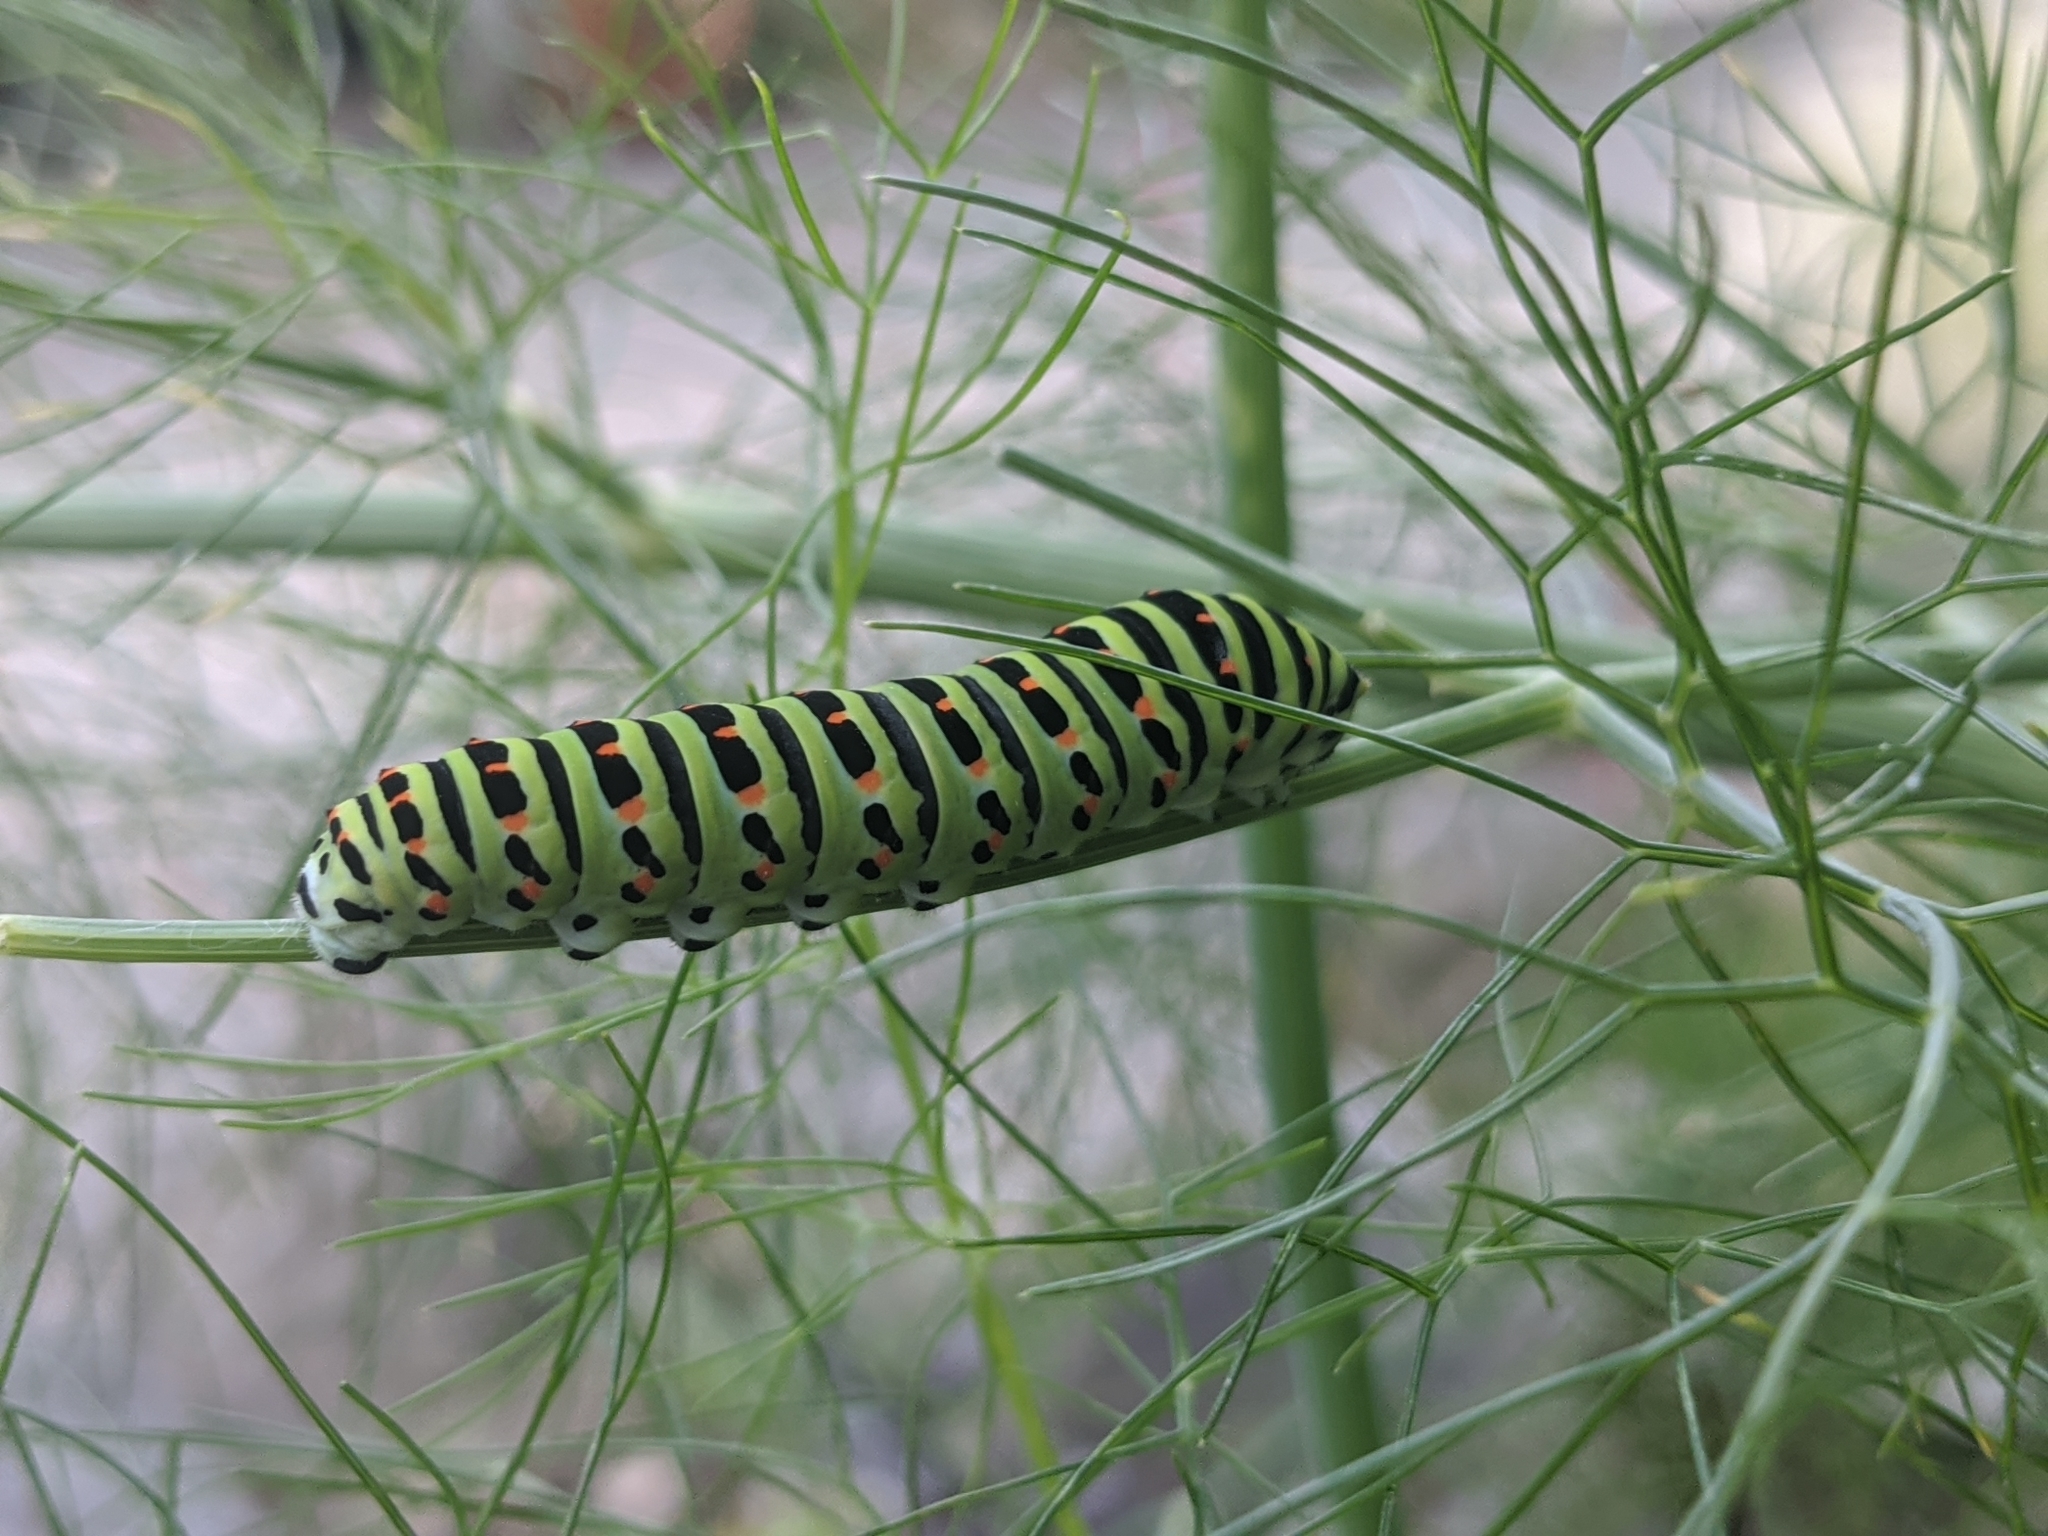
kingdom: Animalia
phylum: Arthropoda
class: Insecta
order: Lepidoptera
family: Papilionidae
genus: Papilio
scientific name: Papilio machaon
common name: Swallowtail
